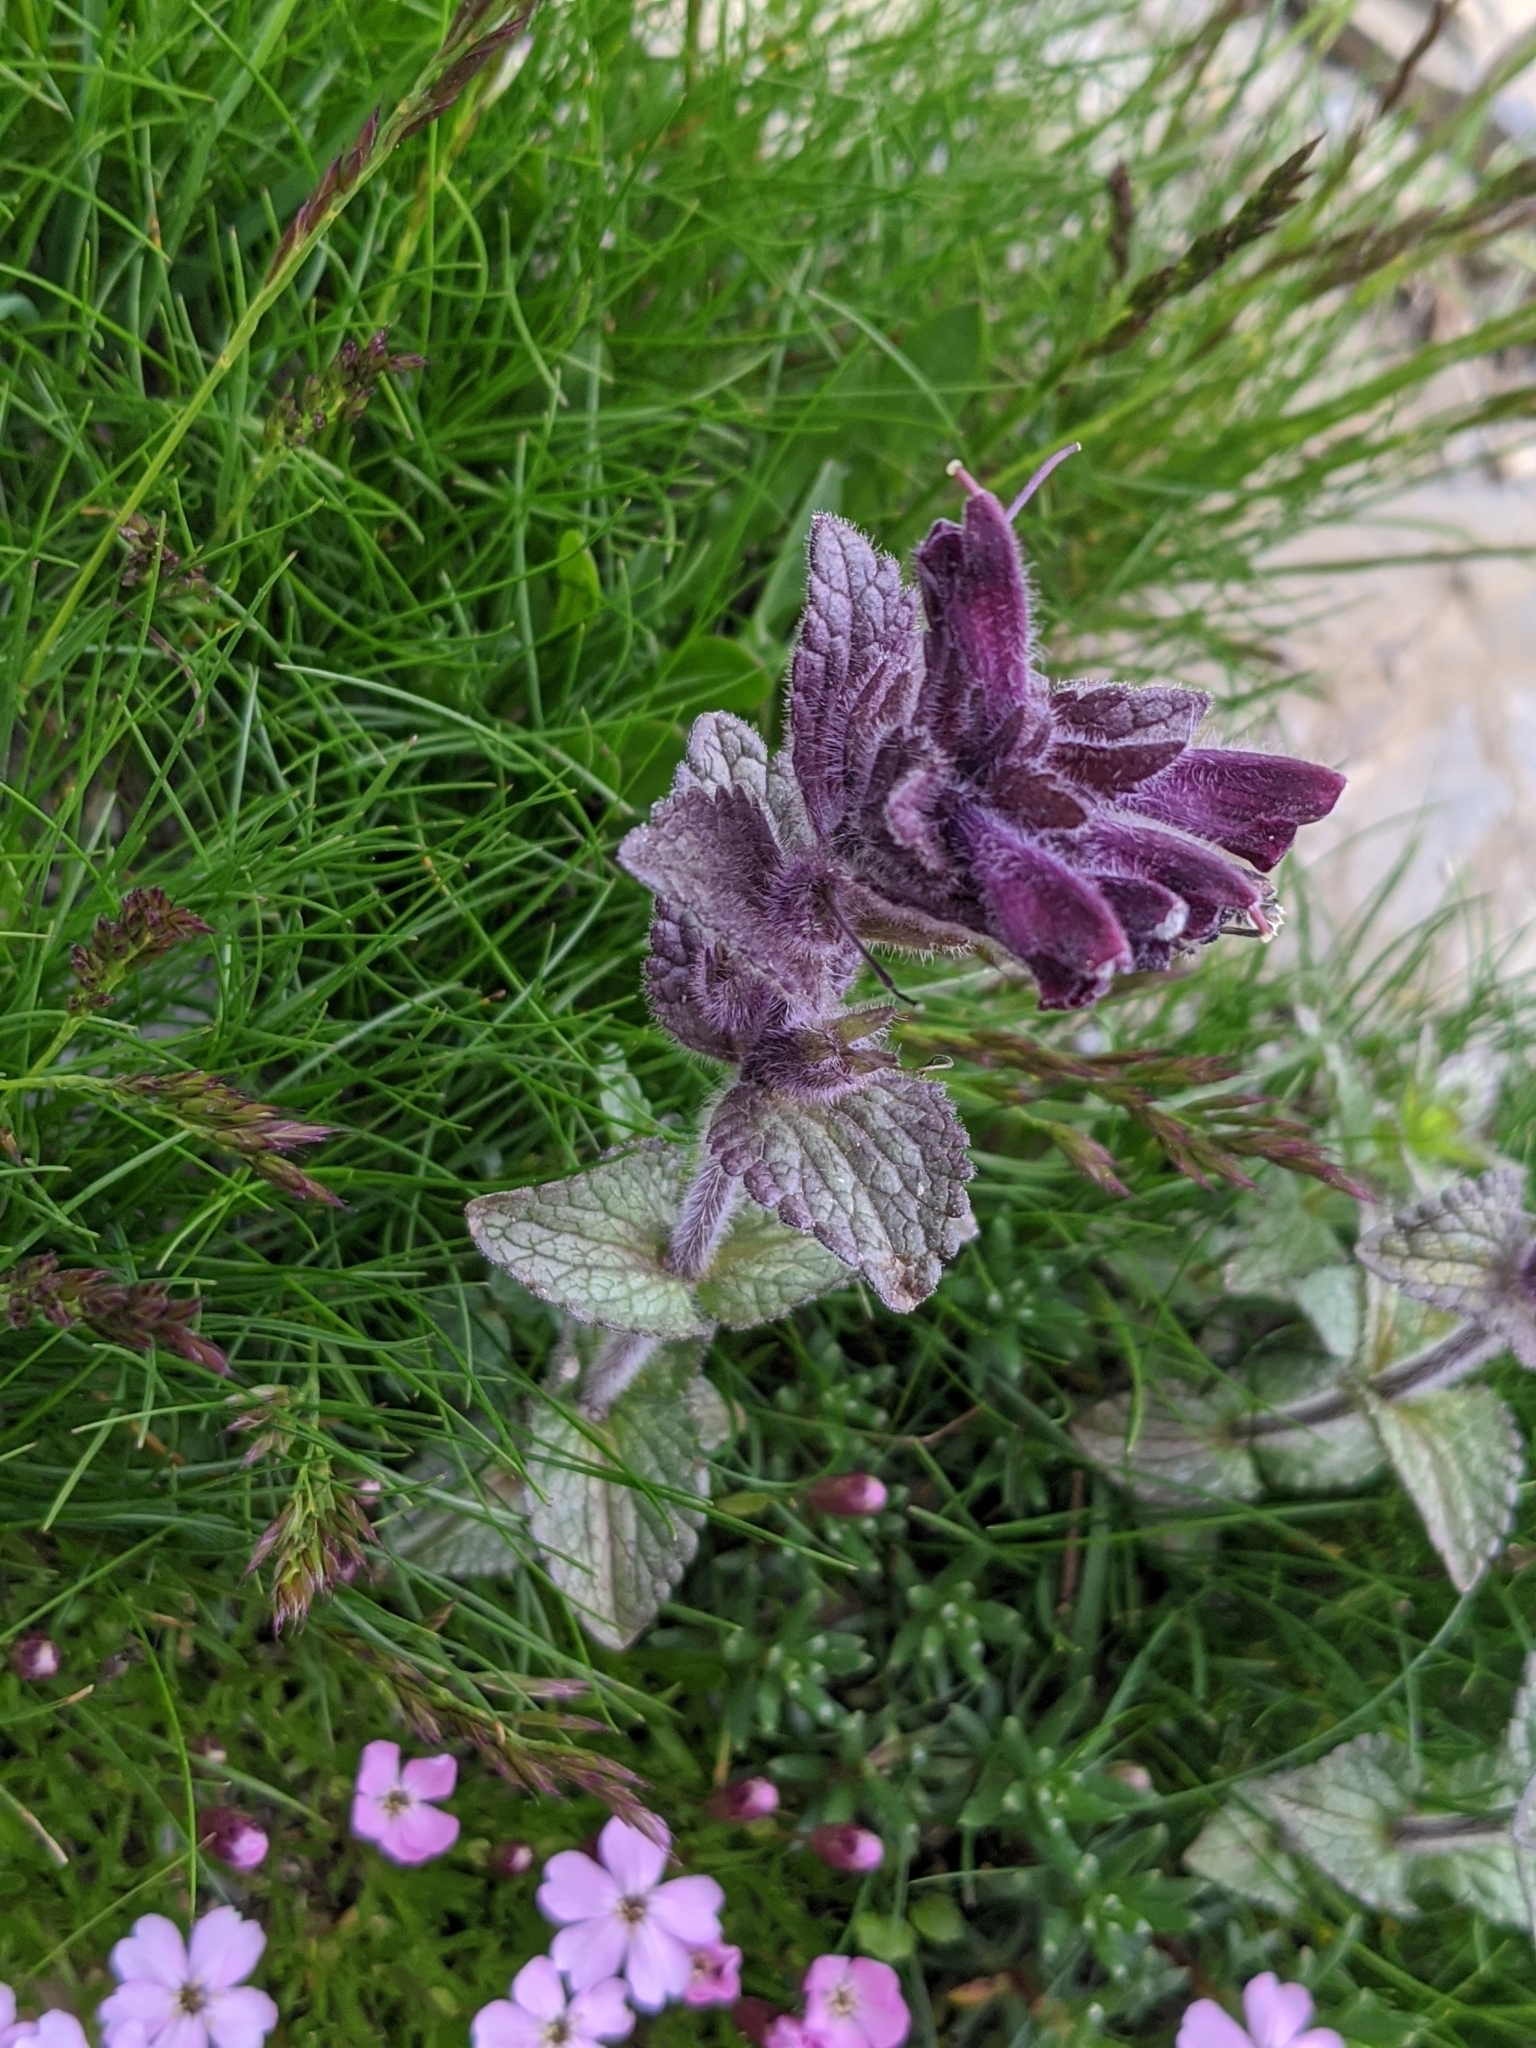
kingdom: Plantae
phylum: Tracheophyta
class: Magnoliopsida
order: Lamiales
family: Orobanchaceae
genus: Bartsia
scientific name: Bartsia alpina
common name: Alpine bartsia
